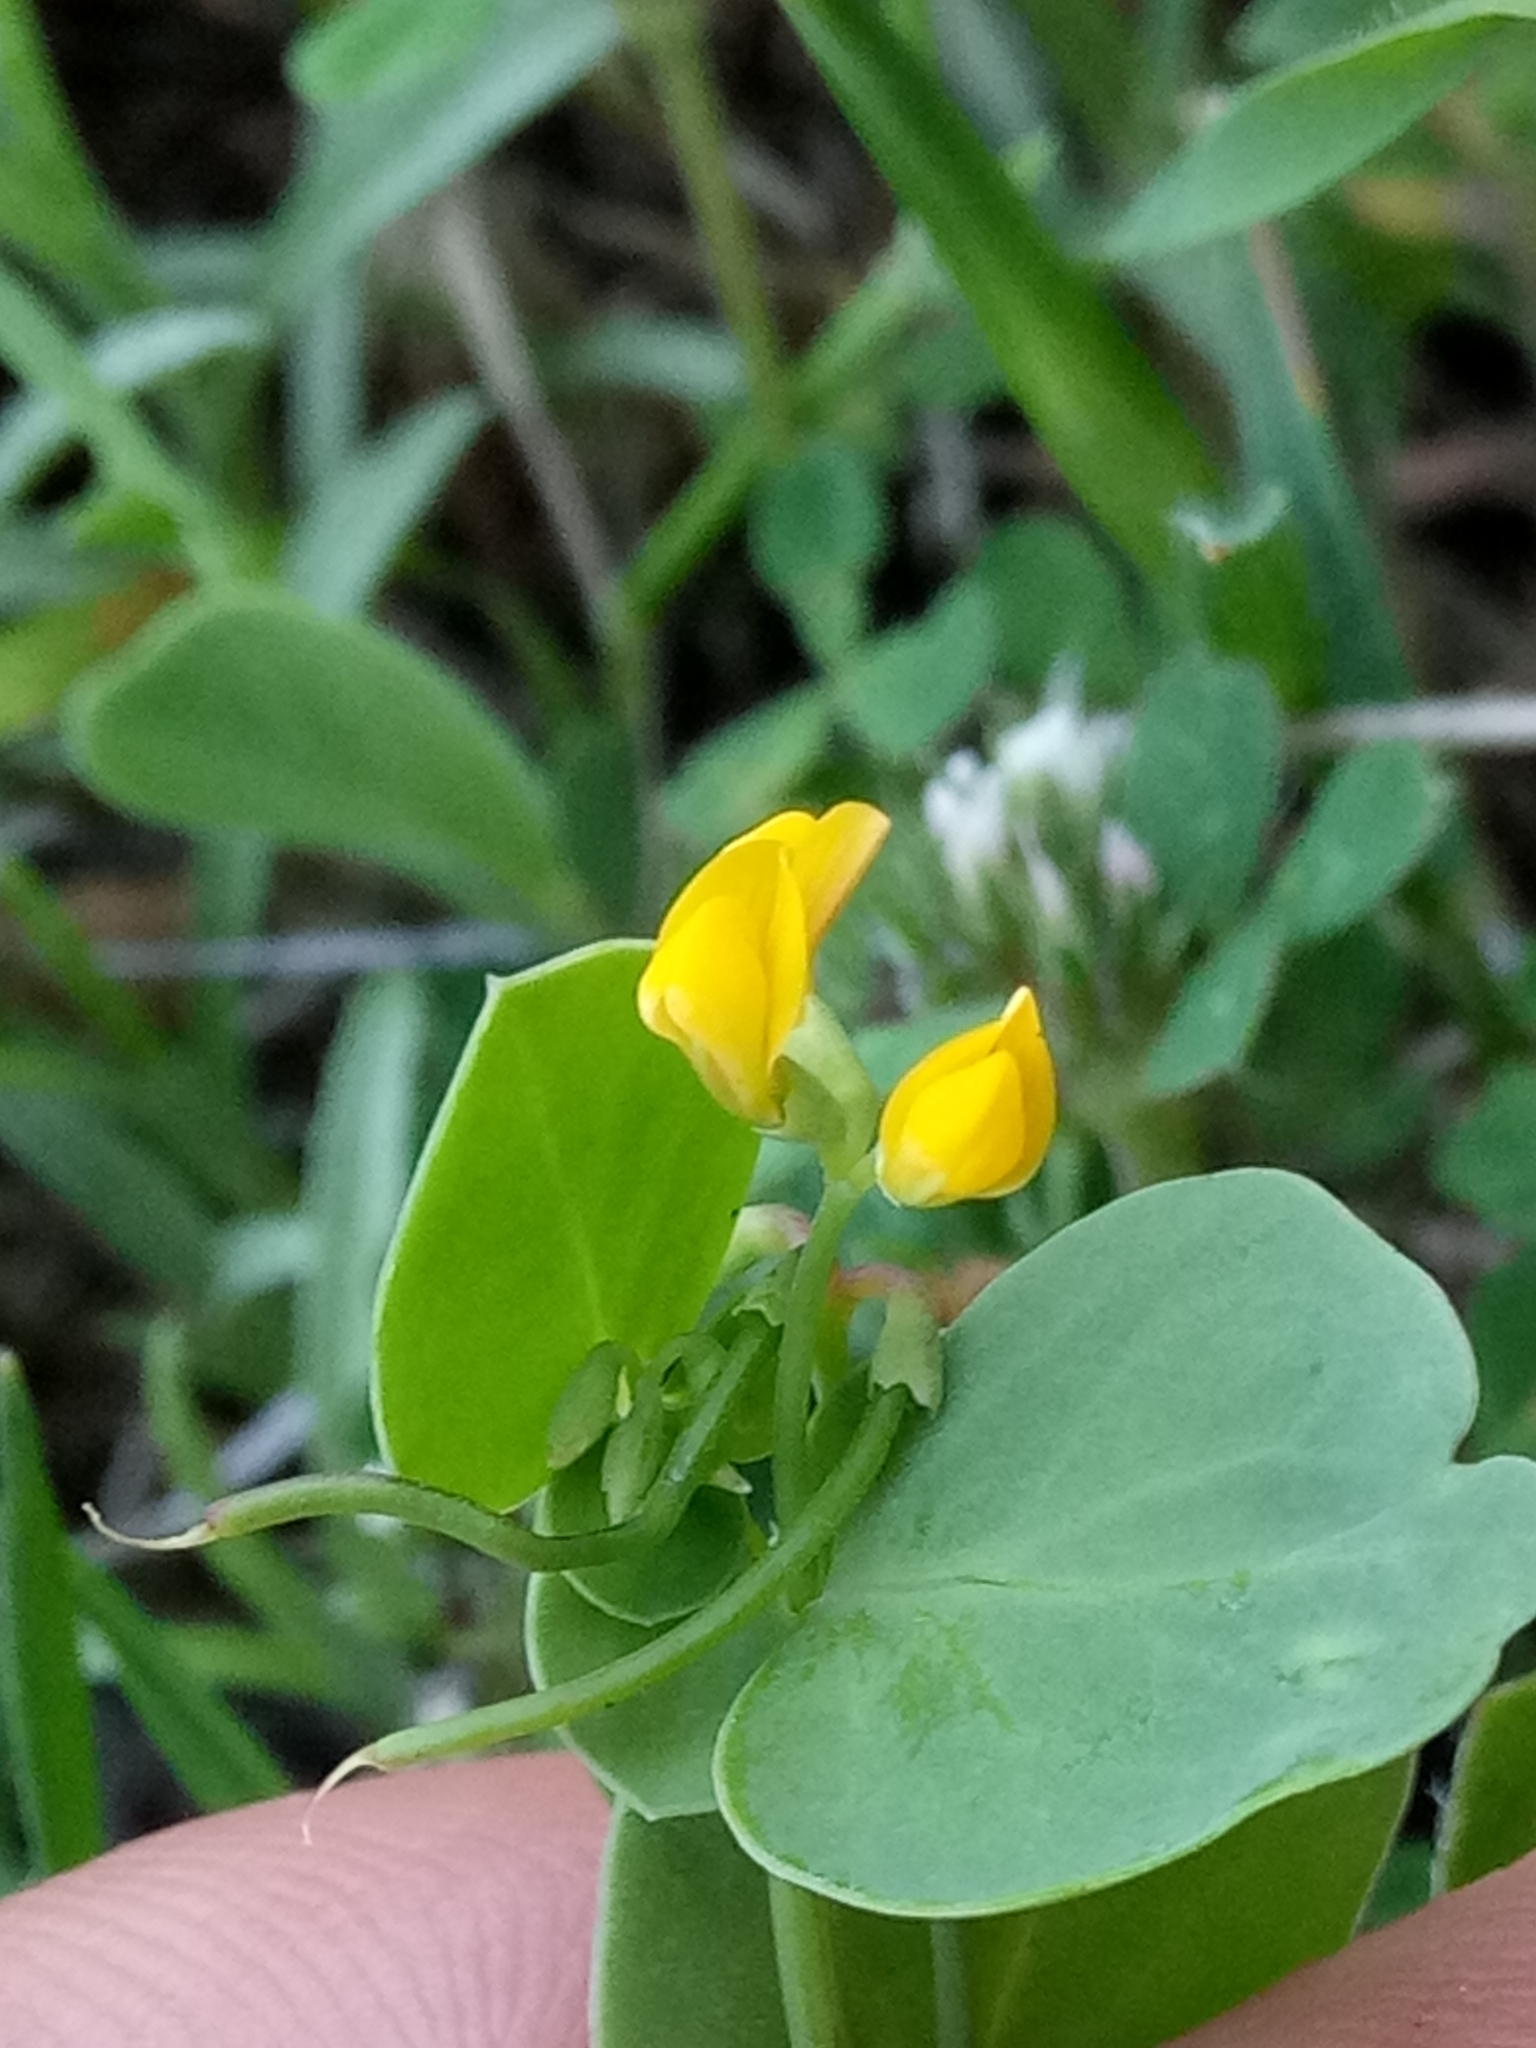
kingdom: Plantae
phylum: Tracheophyta
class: Magnoliopsida
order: Fabales
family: Fabaceae
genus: Coronilla
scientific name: Coronilla scorpioides
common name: Annual scorpion-vetch
